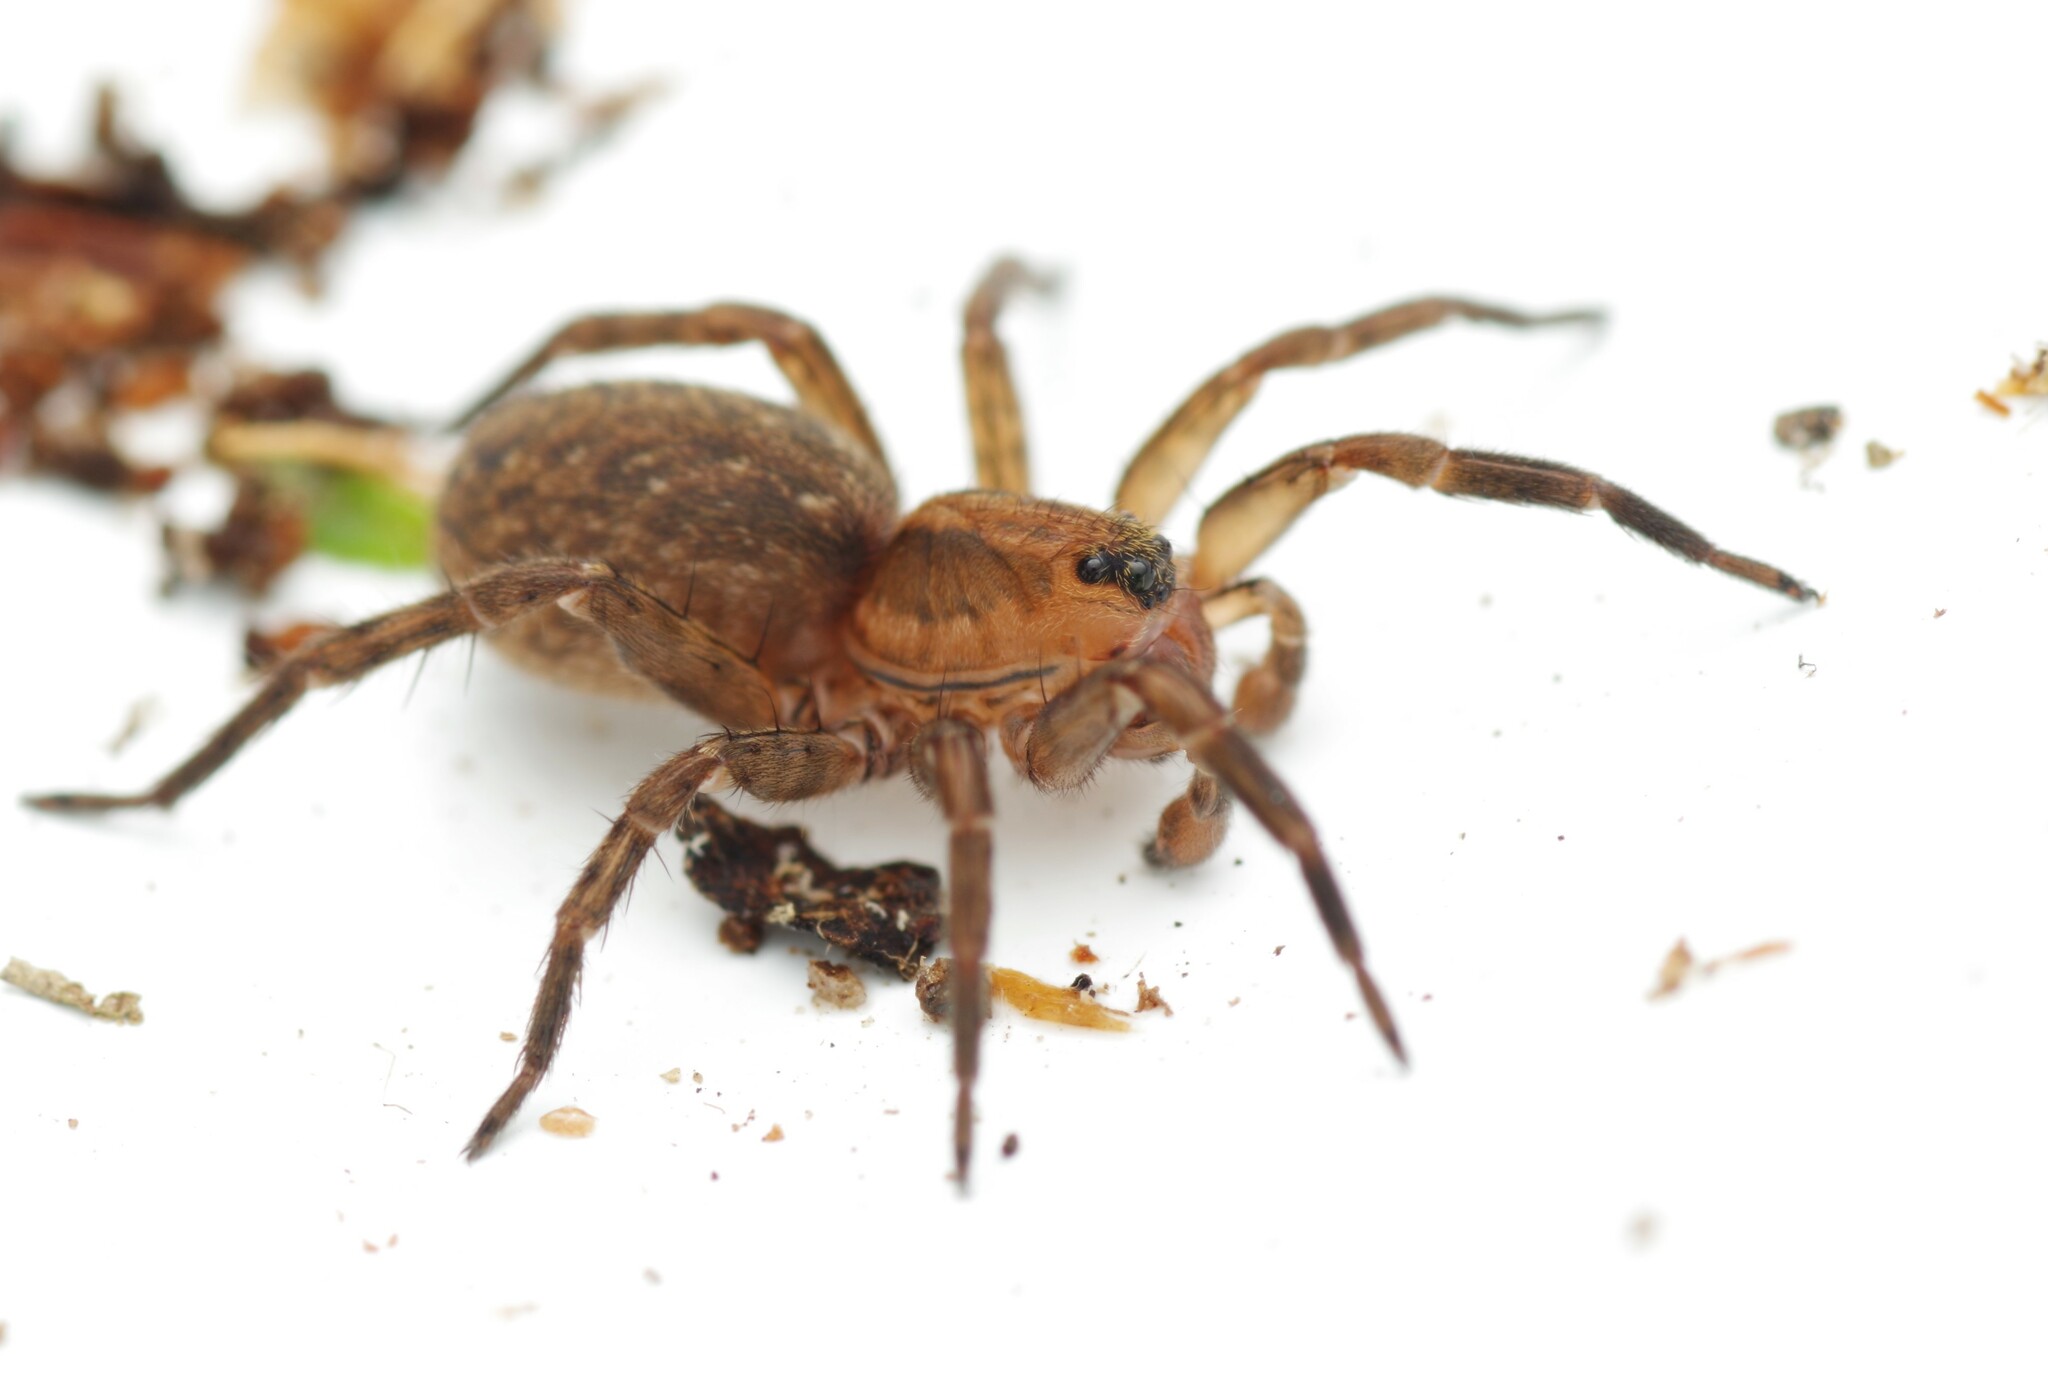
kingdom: Animalia
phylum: Arthropoda
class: Arachnida
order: Araneae
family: Lycosidae
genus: Trochosa
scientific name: Trochosa
